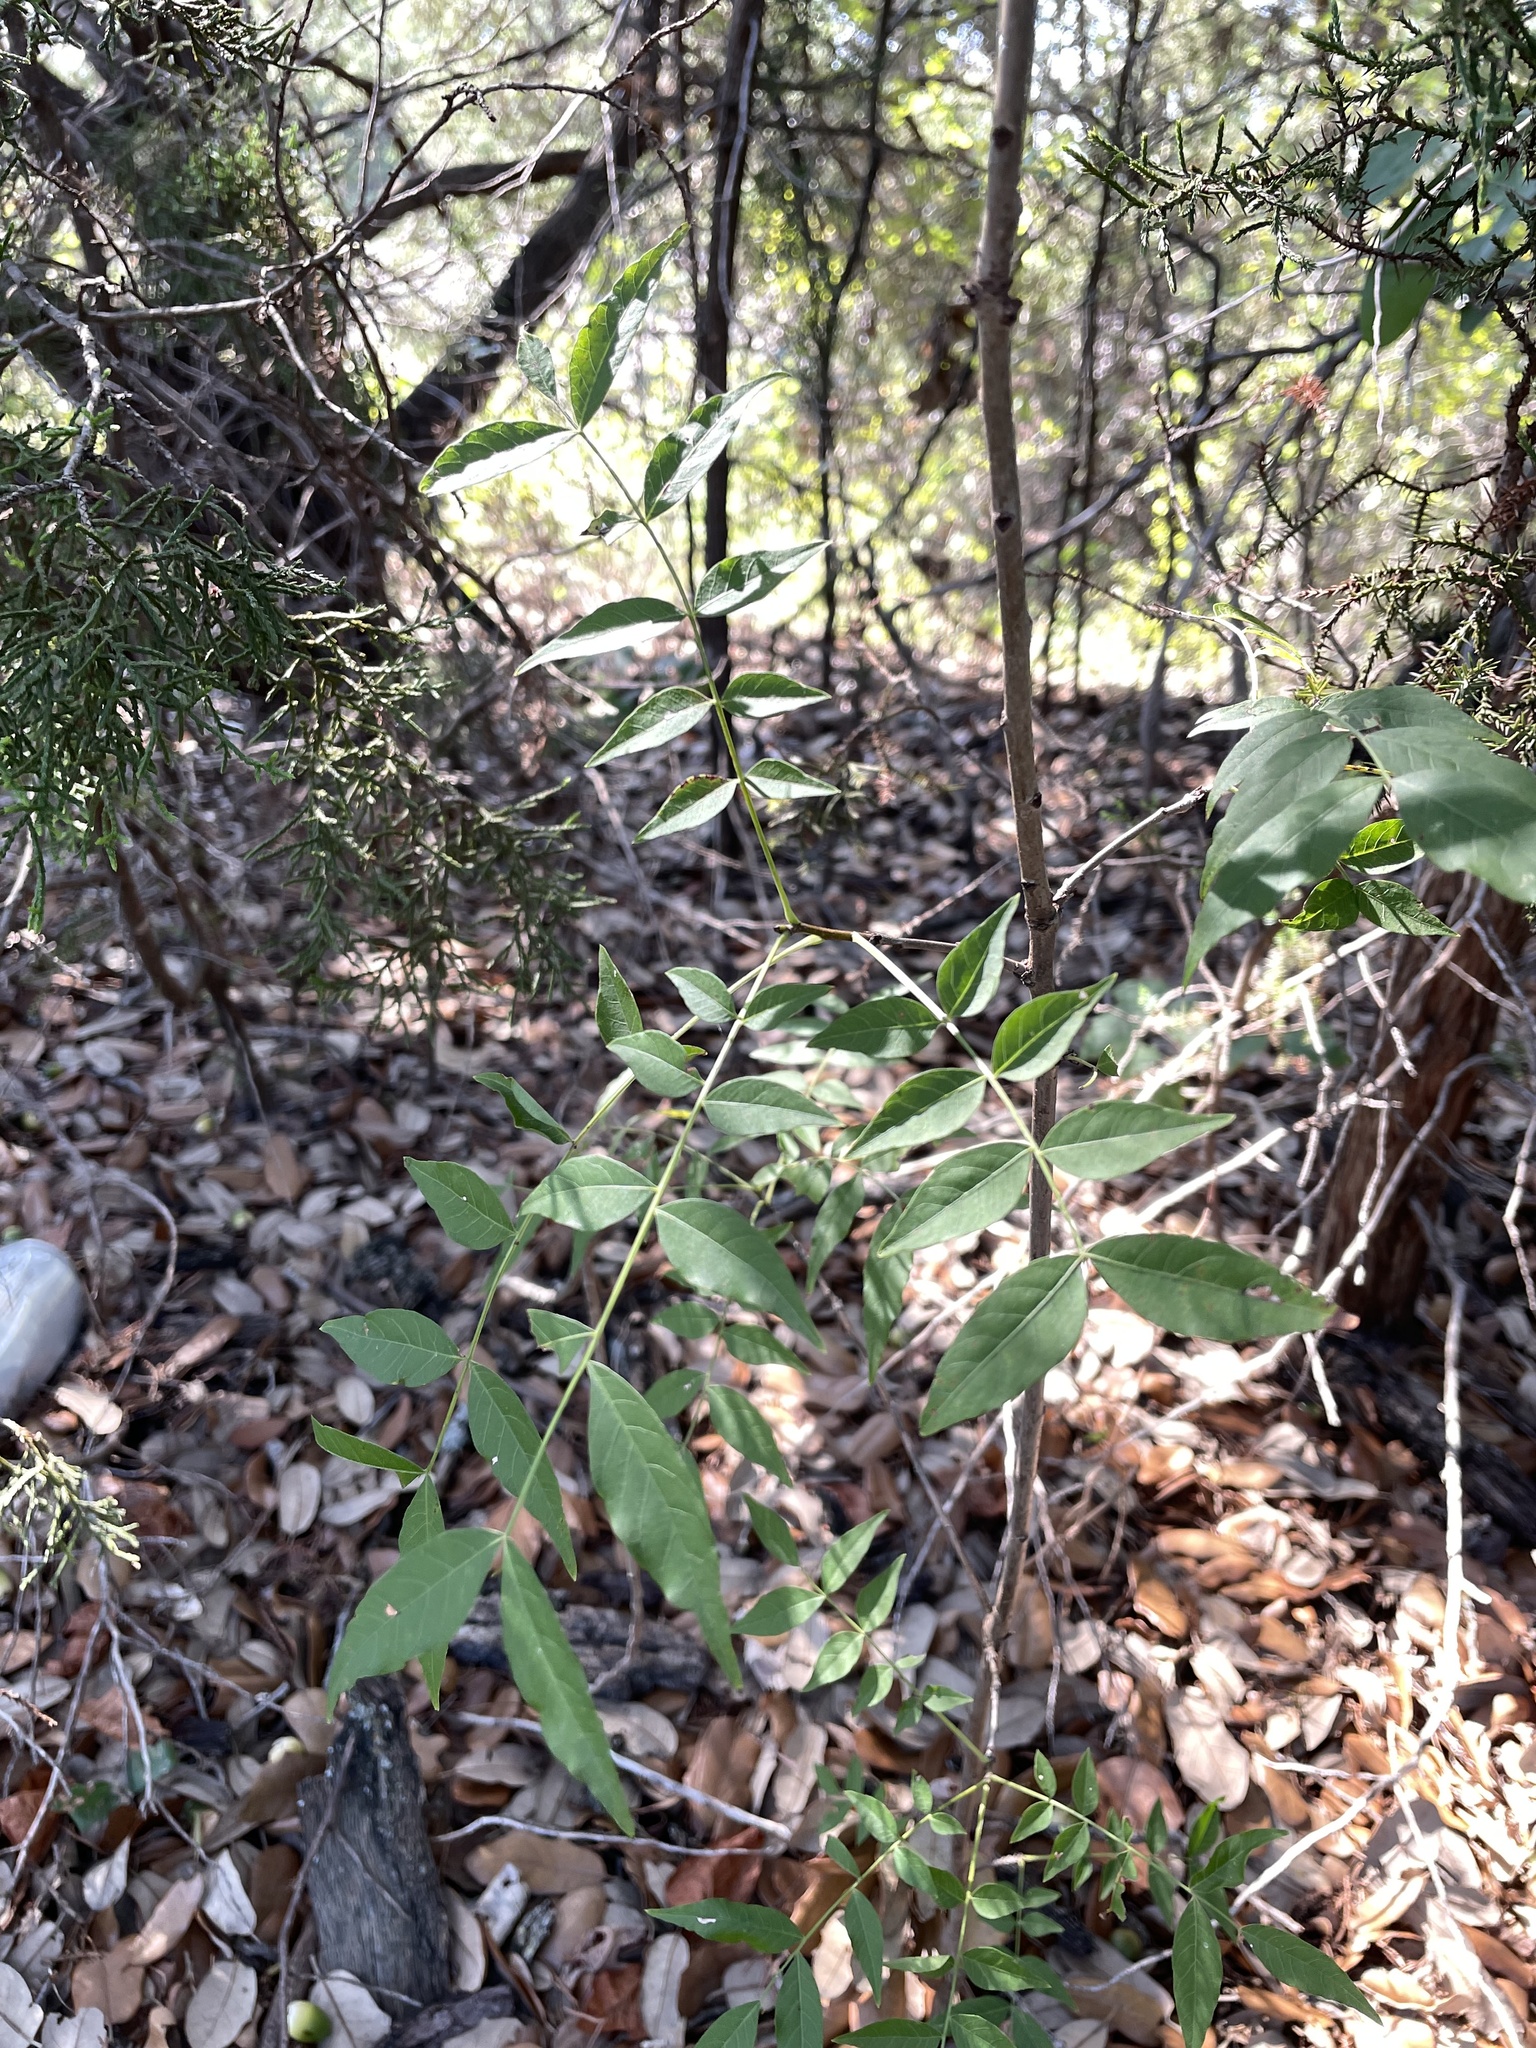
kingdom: Plantae
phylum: Tracheophyta
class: Magnoliopsida
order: Sapindales
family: Anacardiaceae
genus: Pistacia
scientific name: Pistacia chinensis
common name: Chinese pistache
